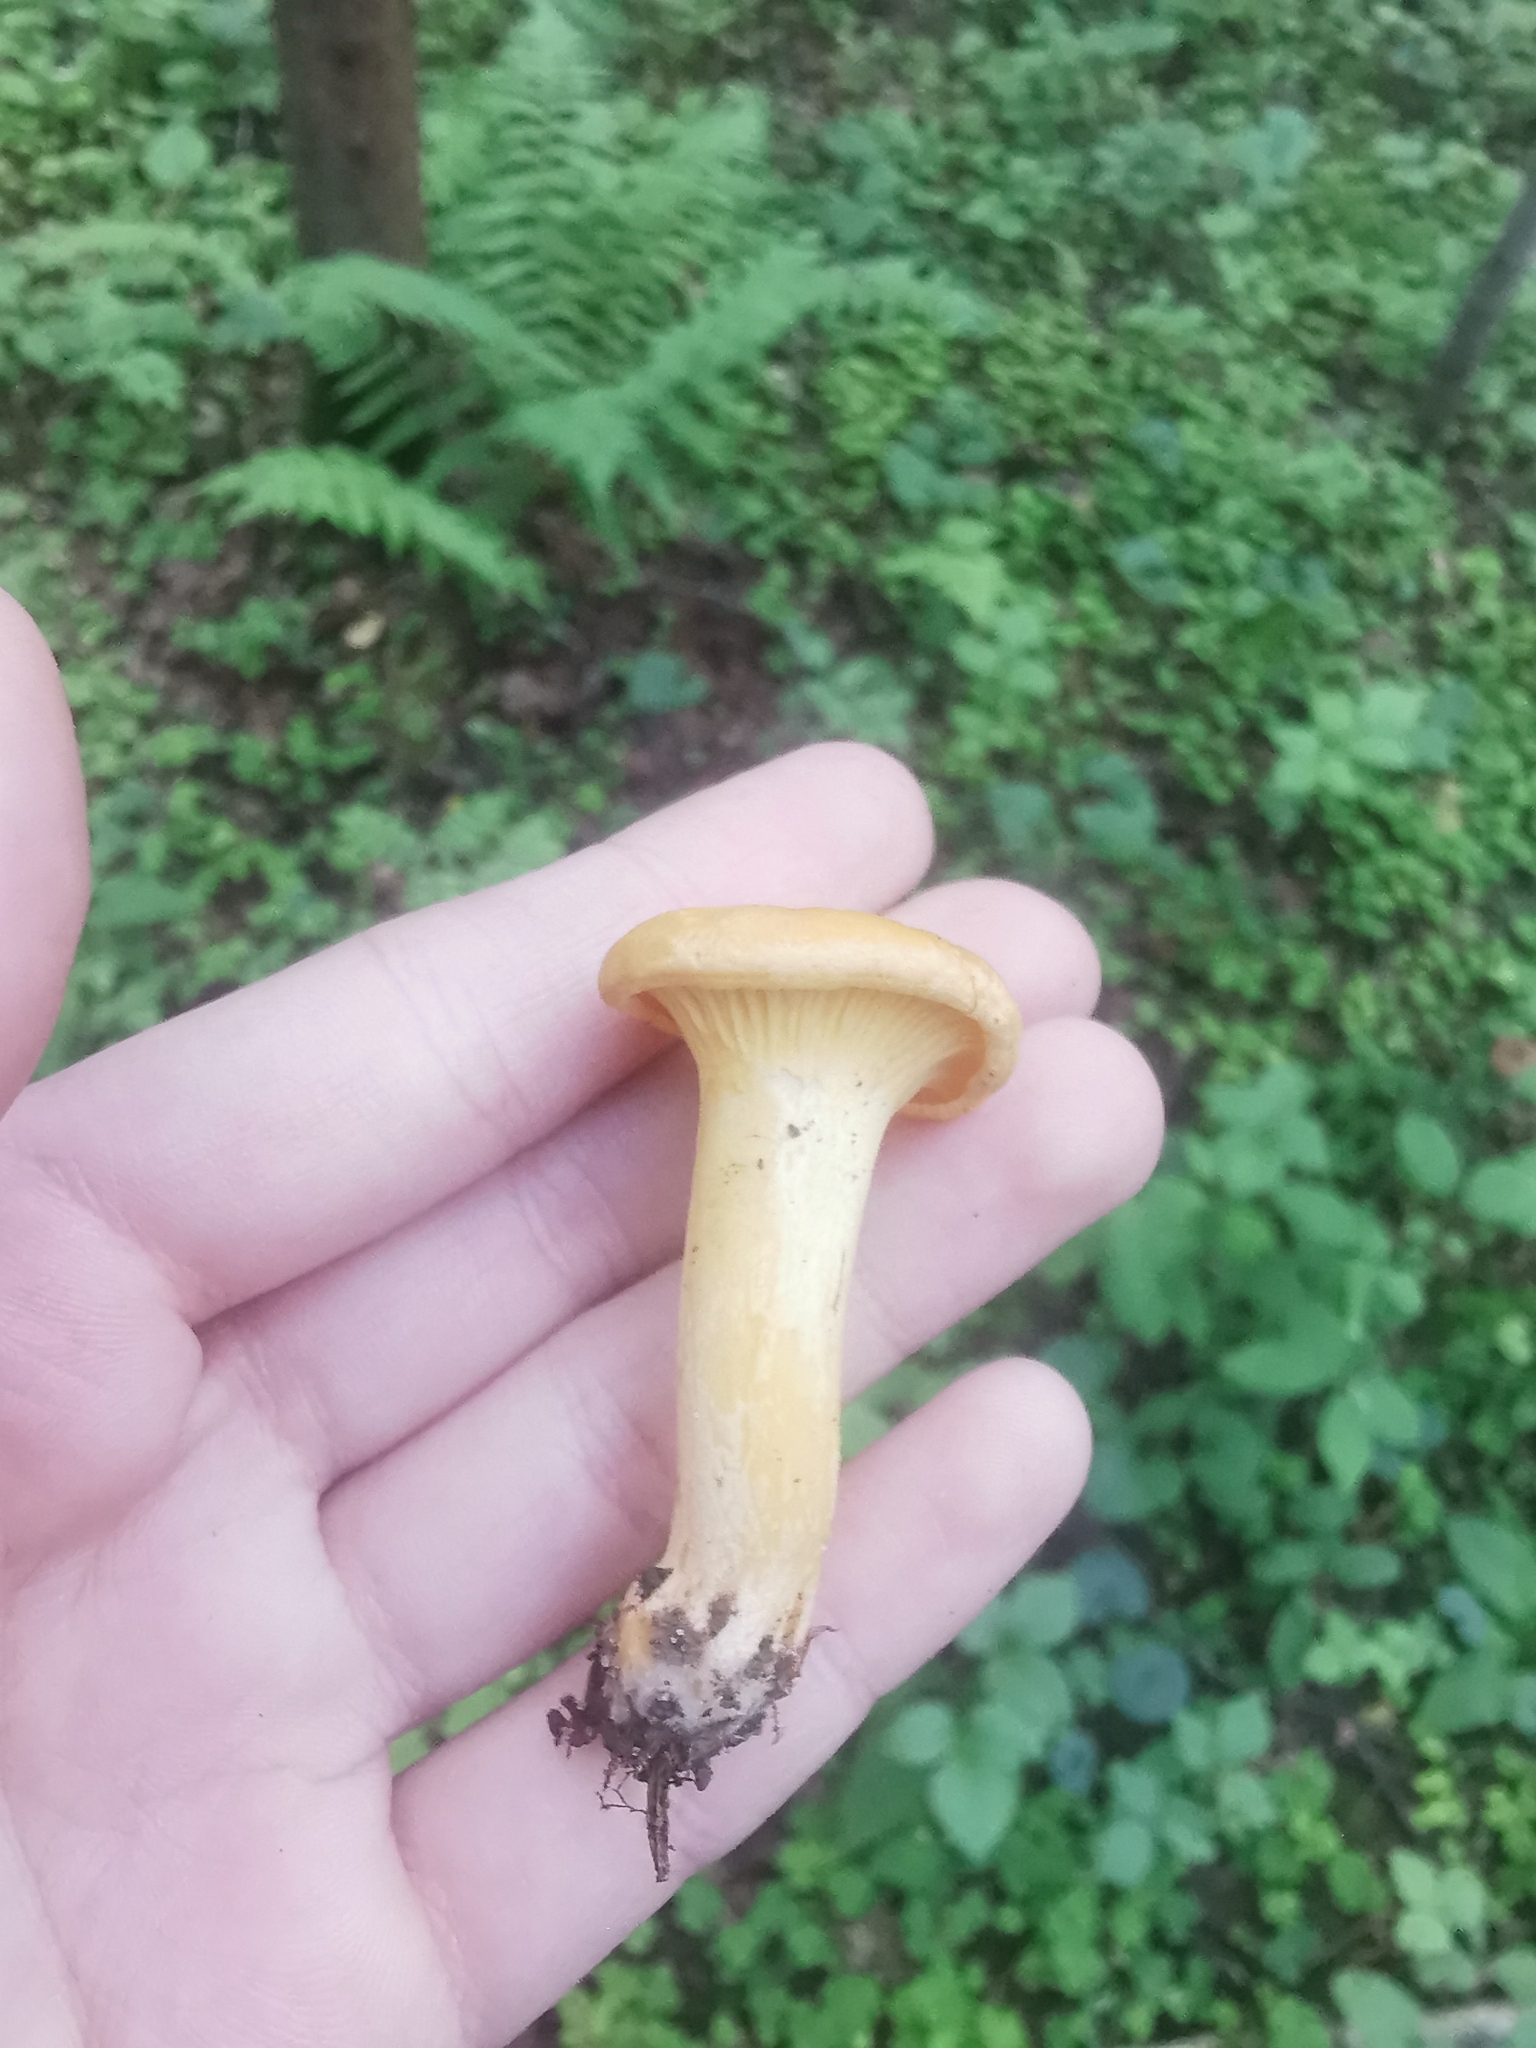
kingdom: Fungi
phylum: Basidiomycota
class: Agaricomycetes
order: Cantharellales
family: Hydnaceae
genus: Cantharellus
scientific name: Cantharellus cibarius
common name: Chanterelle
